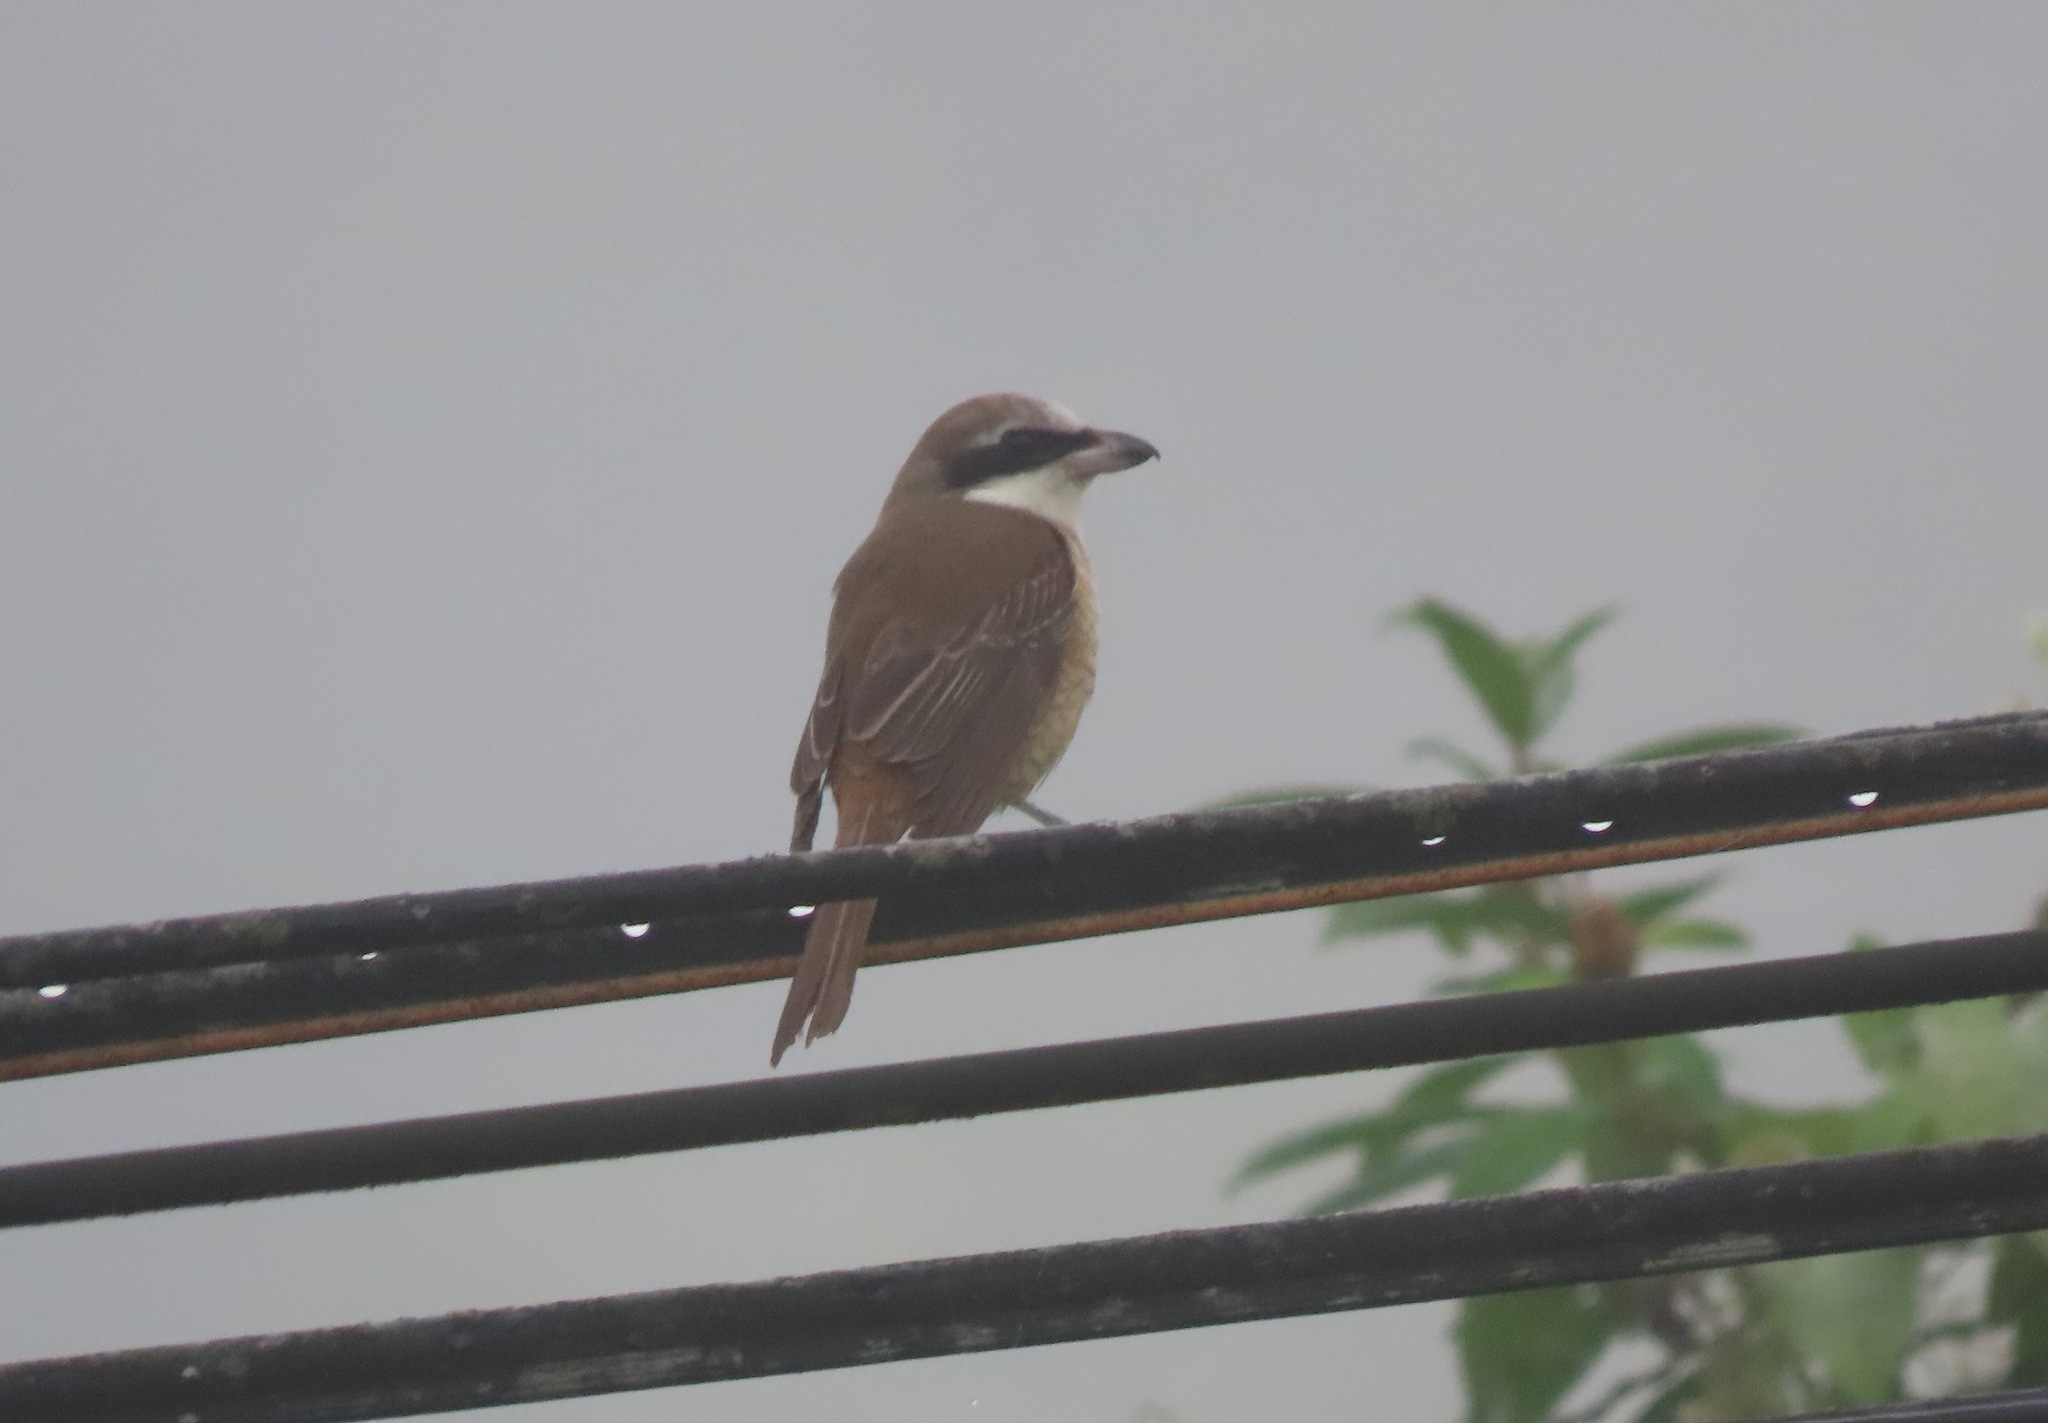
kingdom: Animalia
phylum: Chordata
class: Aves
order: Passeriformes
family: Laniidae
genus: Lanius
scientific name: Lanius cristatus
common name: Brown shrike
